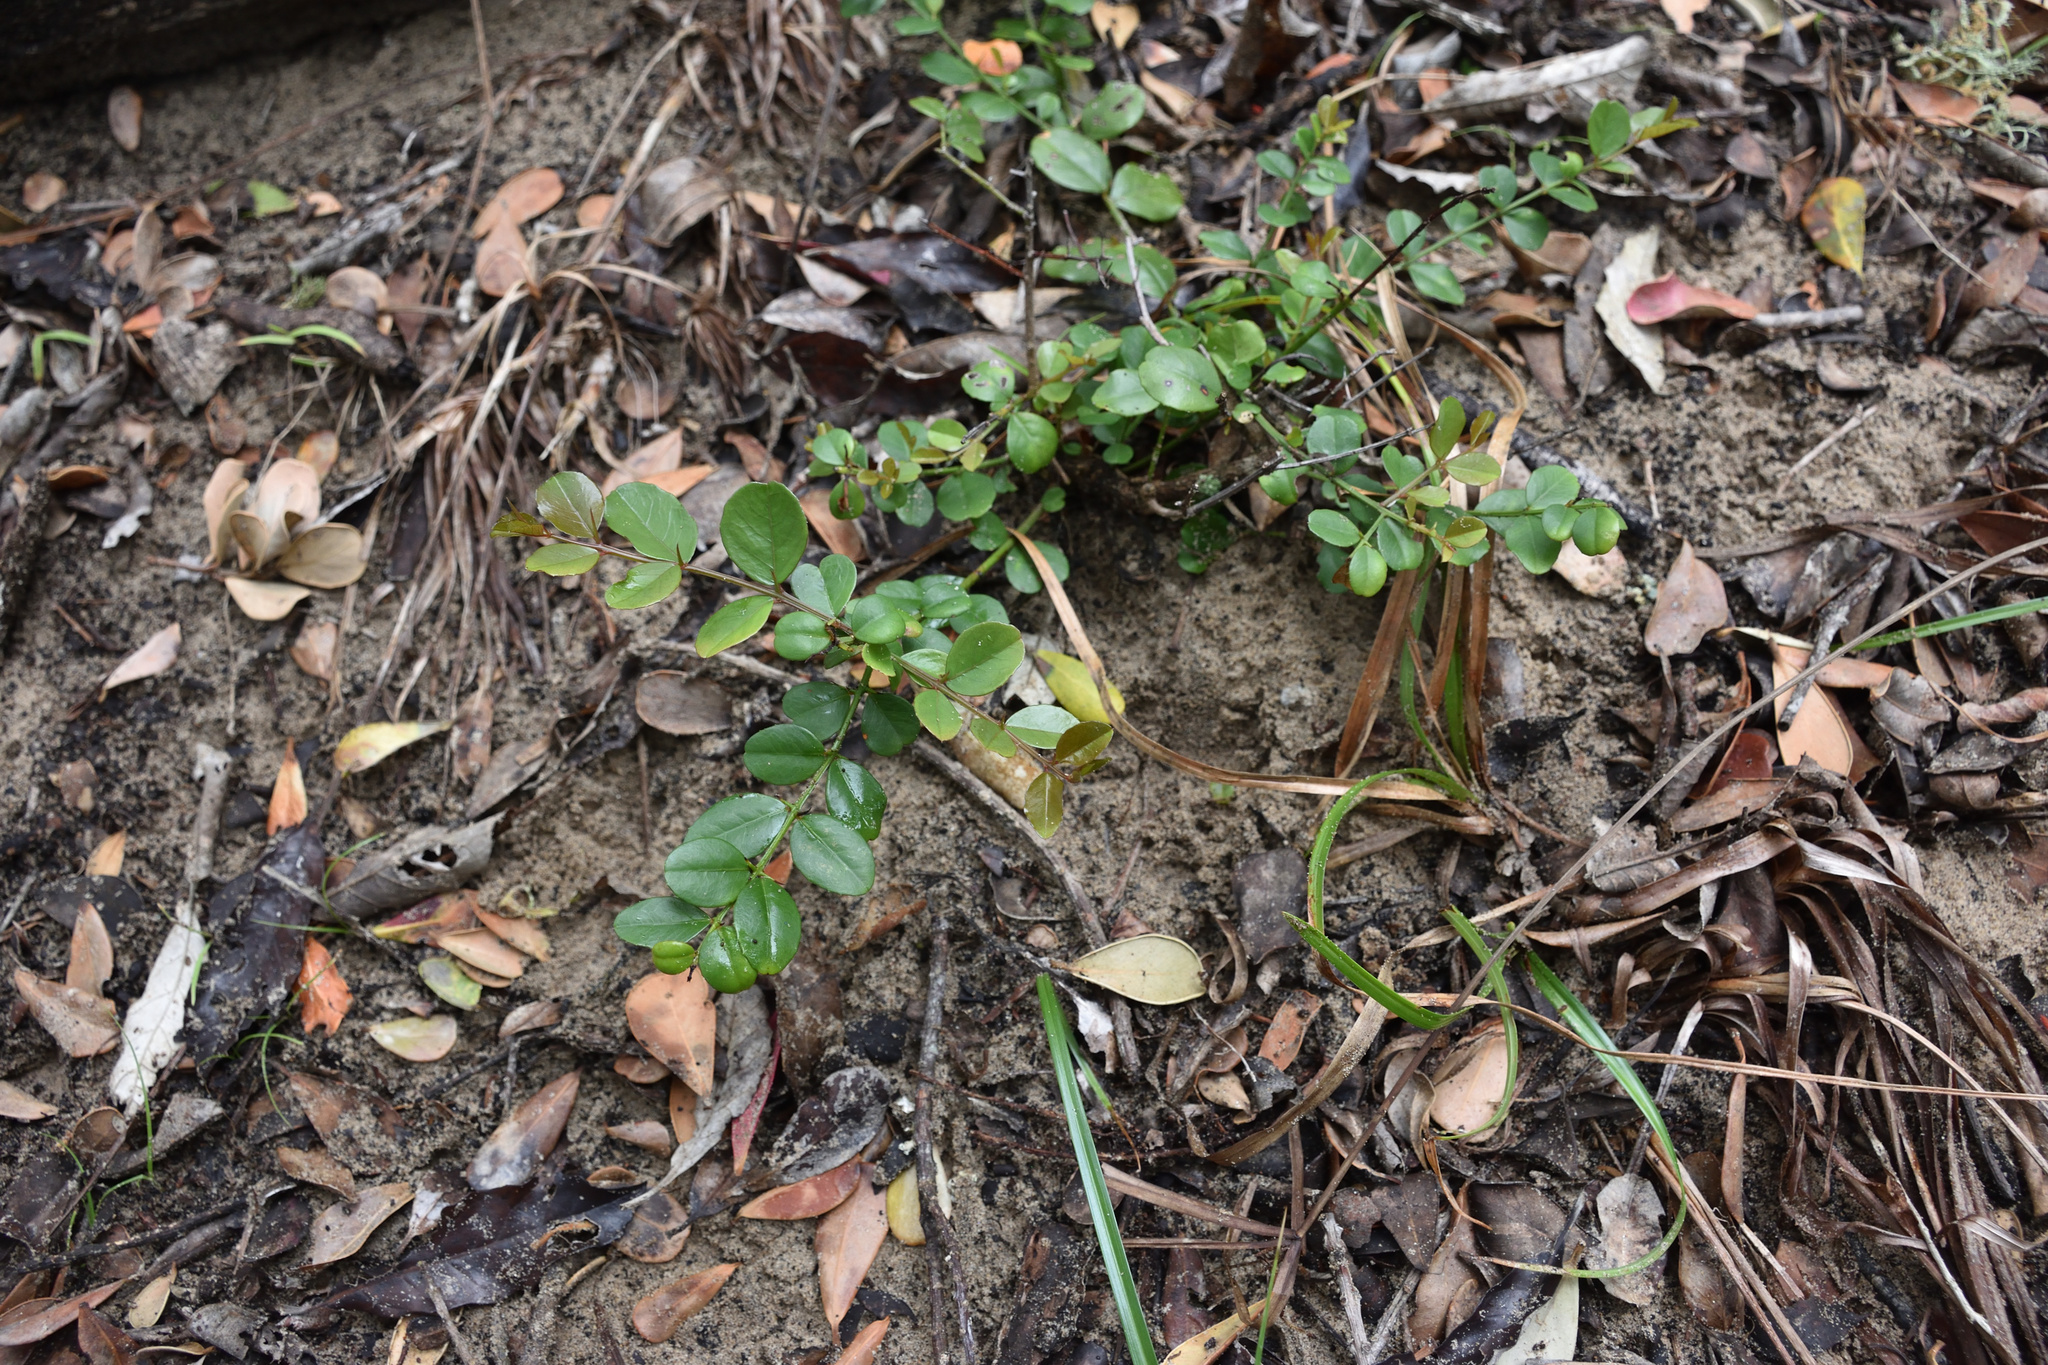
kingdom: Plantae
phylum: Tracheophyta
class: Magnoliopsida
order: Rosales
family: Rhamnaceae
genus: Scutia
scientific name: Scutia myrtina
